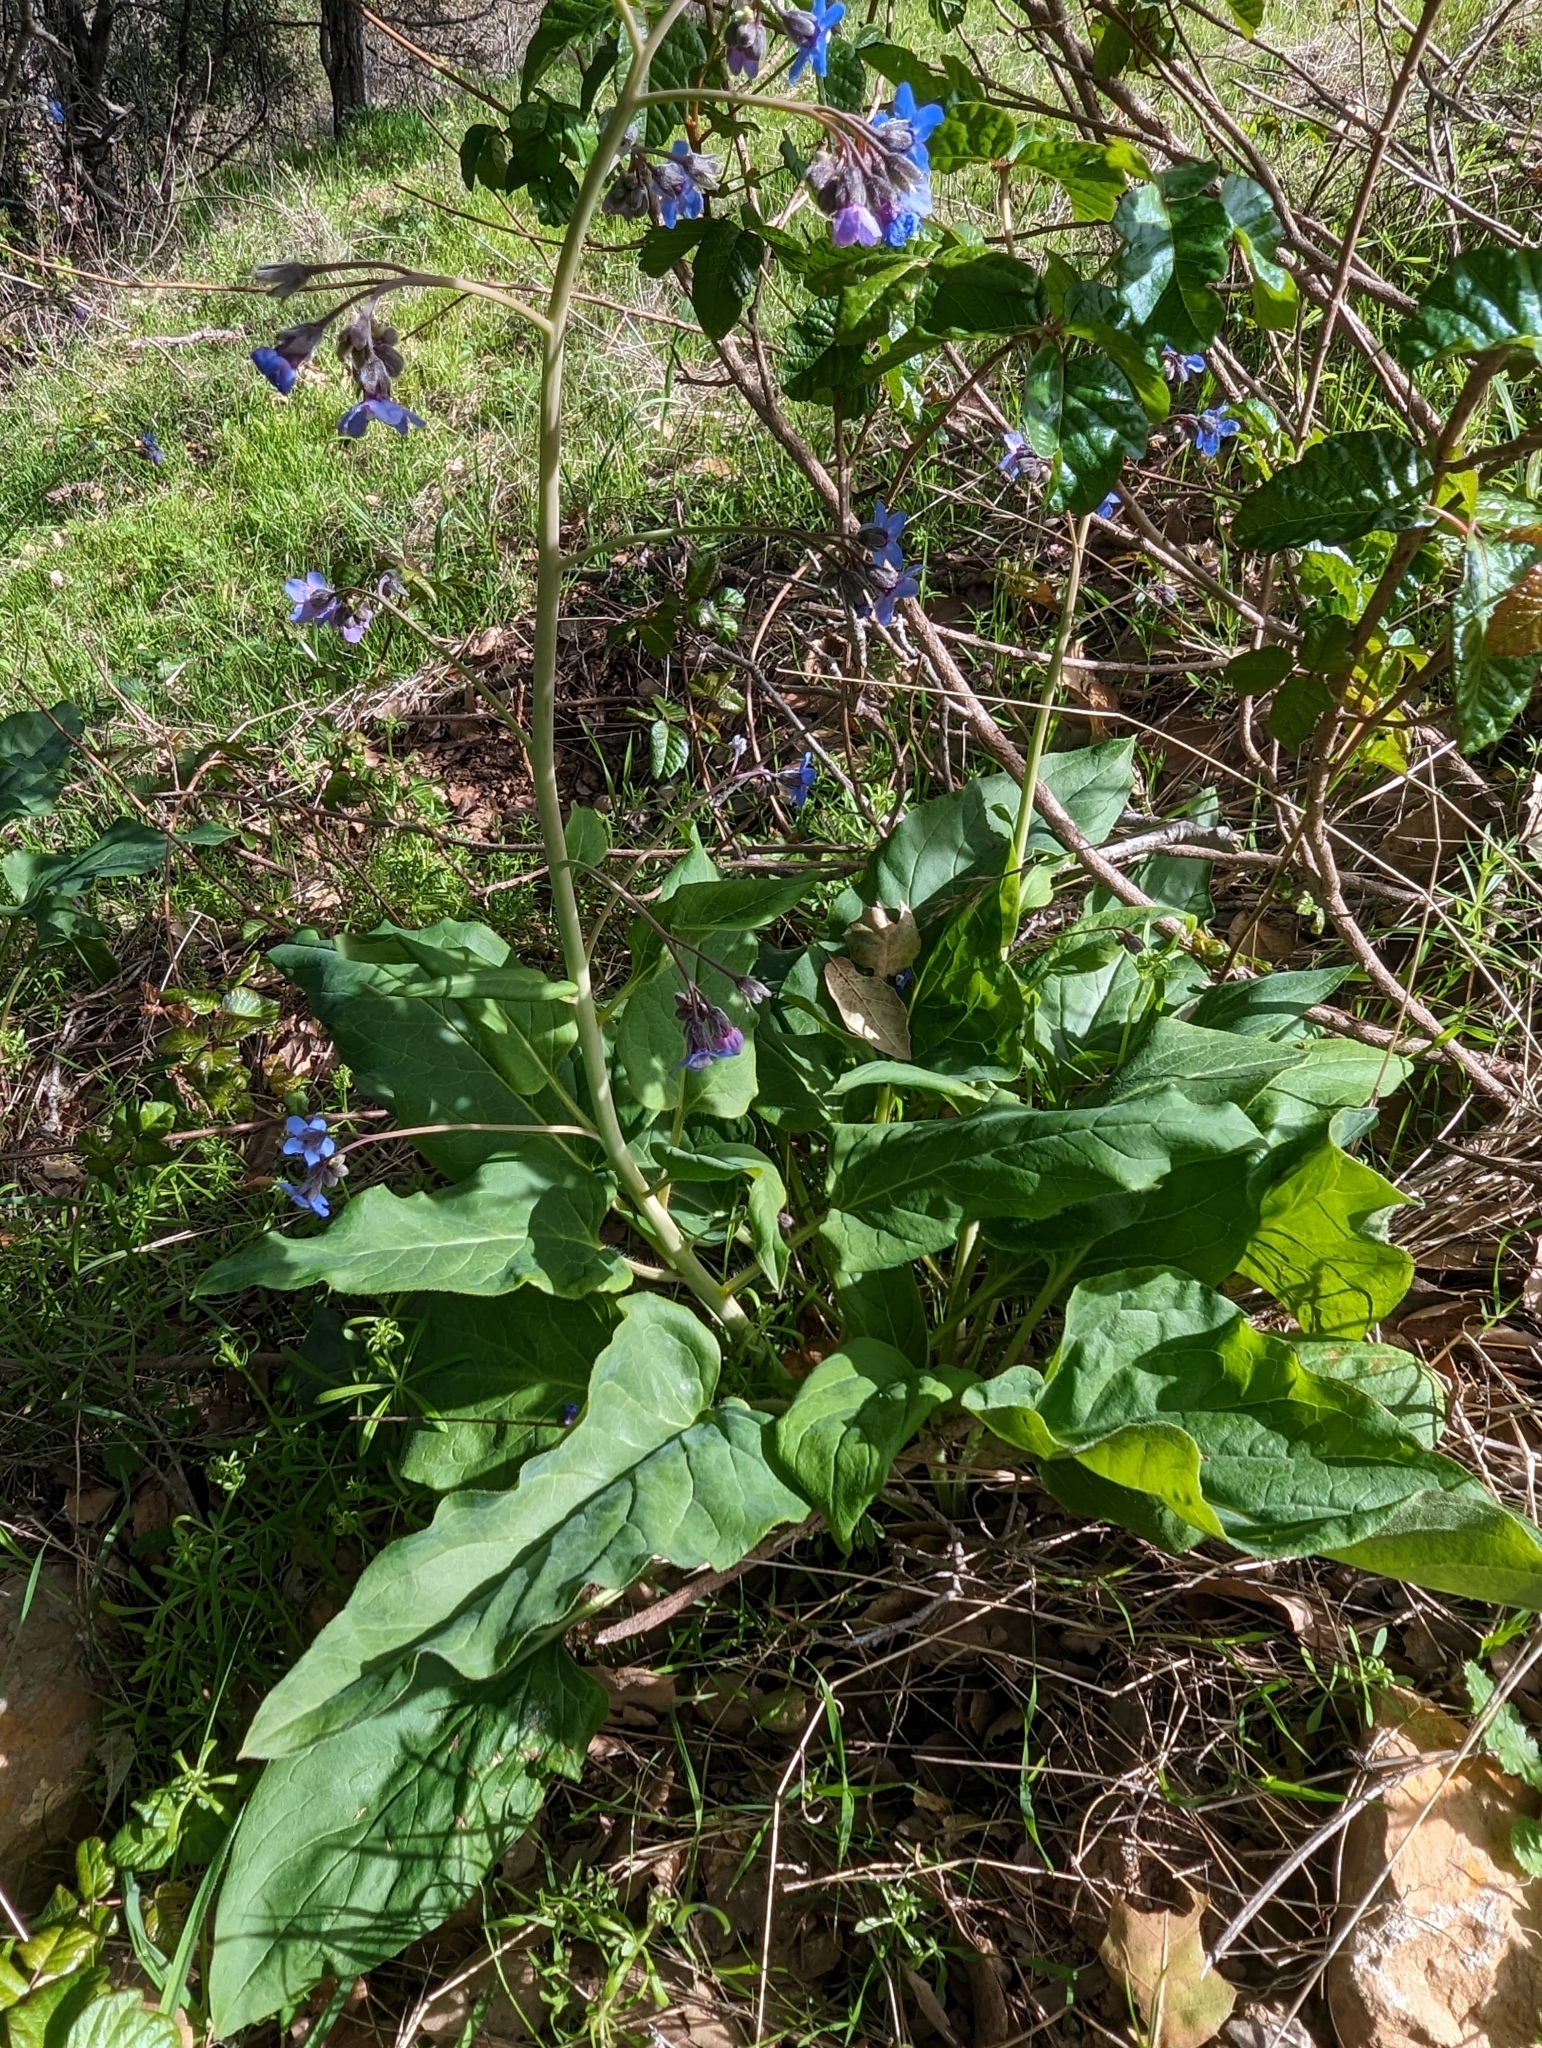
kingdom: Plantae
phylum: Tracheophyta
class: Magnoliopsida
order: Boraginales
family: Boraginaceae
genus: Adelinia
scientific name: Adelinia grande
